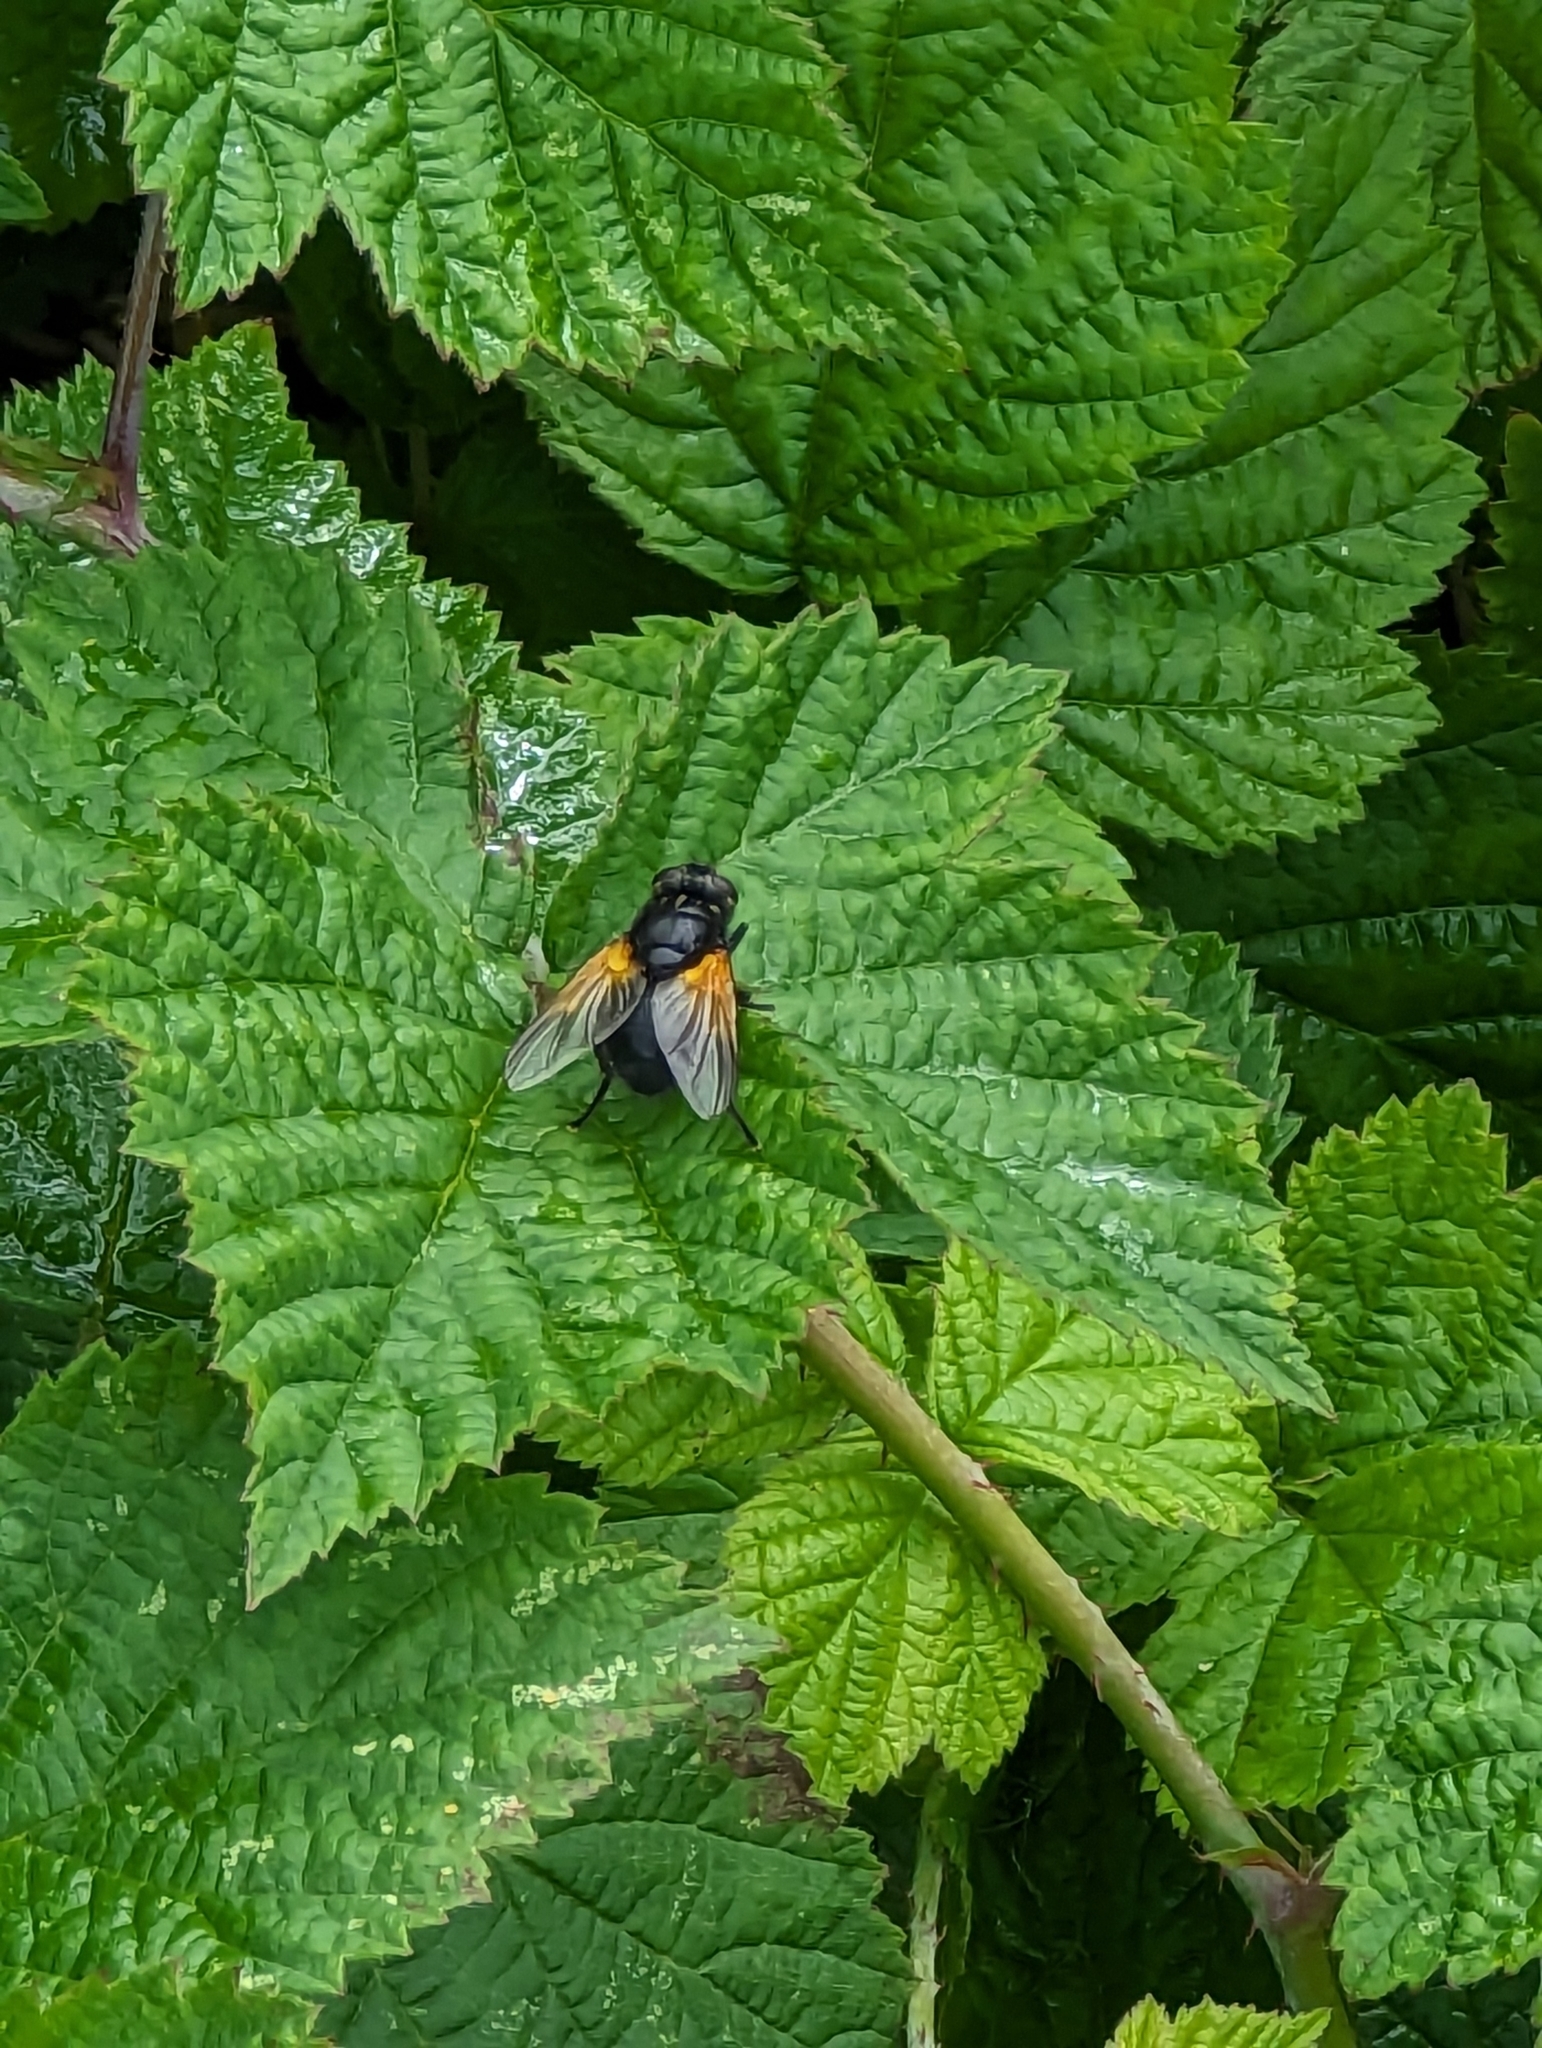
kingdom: Animalia
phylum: Arthropoda
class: Insecta
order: Diptera
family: Muscidae
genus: Mesembrina
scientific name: Mesembrina meridiana
